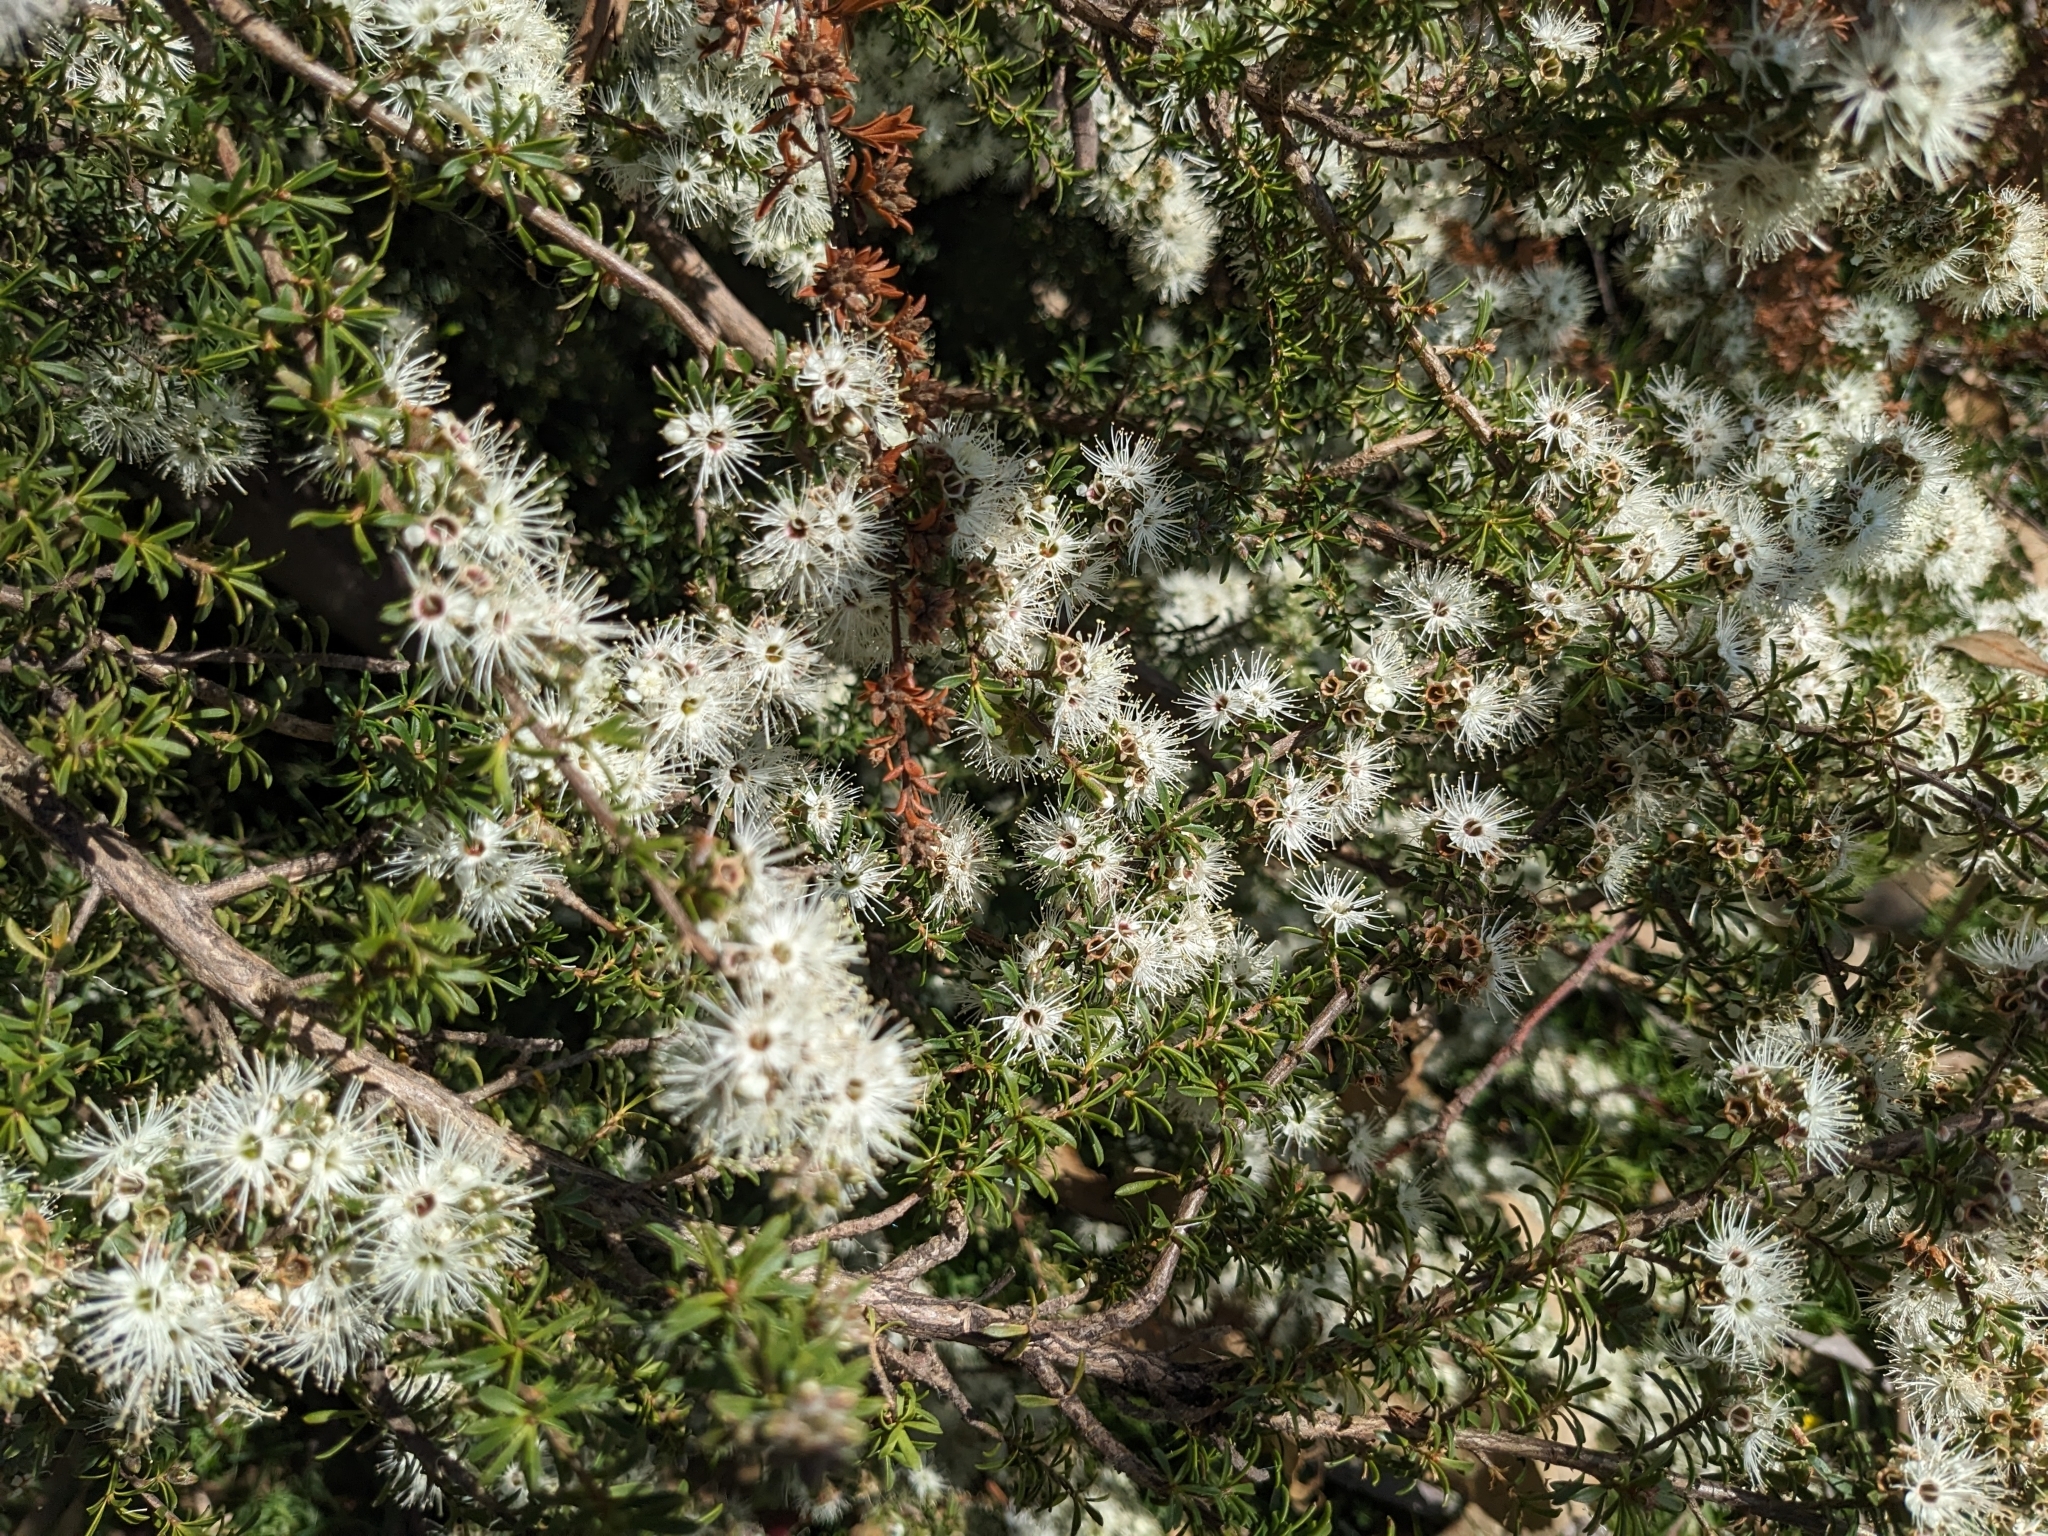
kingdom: Plantae
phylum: Tracheophyta
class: Magnoliopsida
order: Myrtales
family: Myrtaceae
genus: Kunzea
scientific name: Kunzea ambigua
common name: Tickbush
